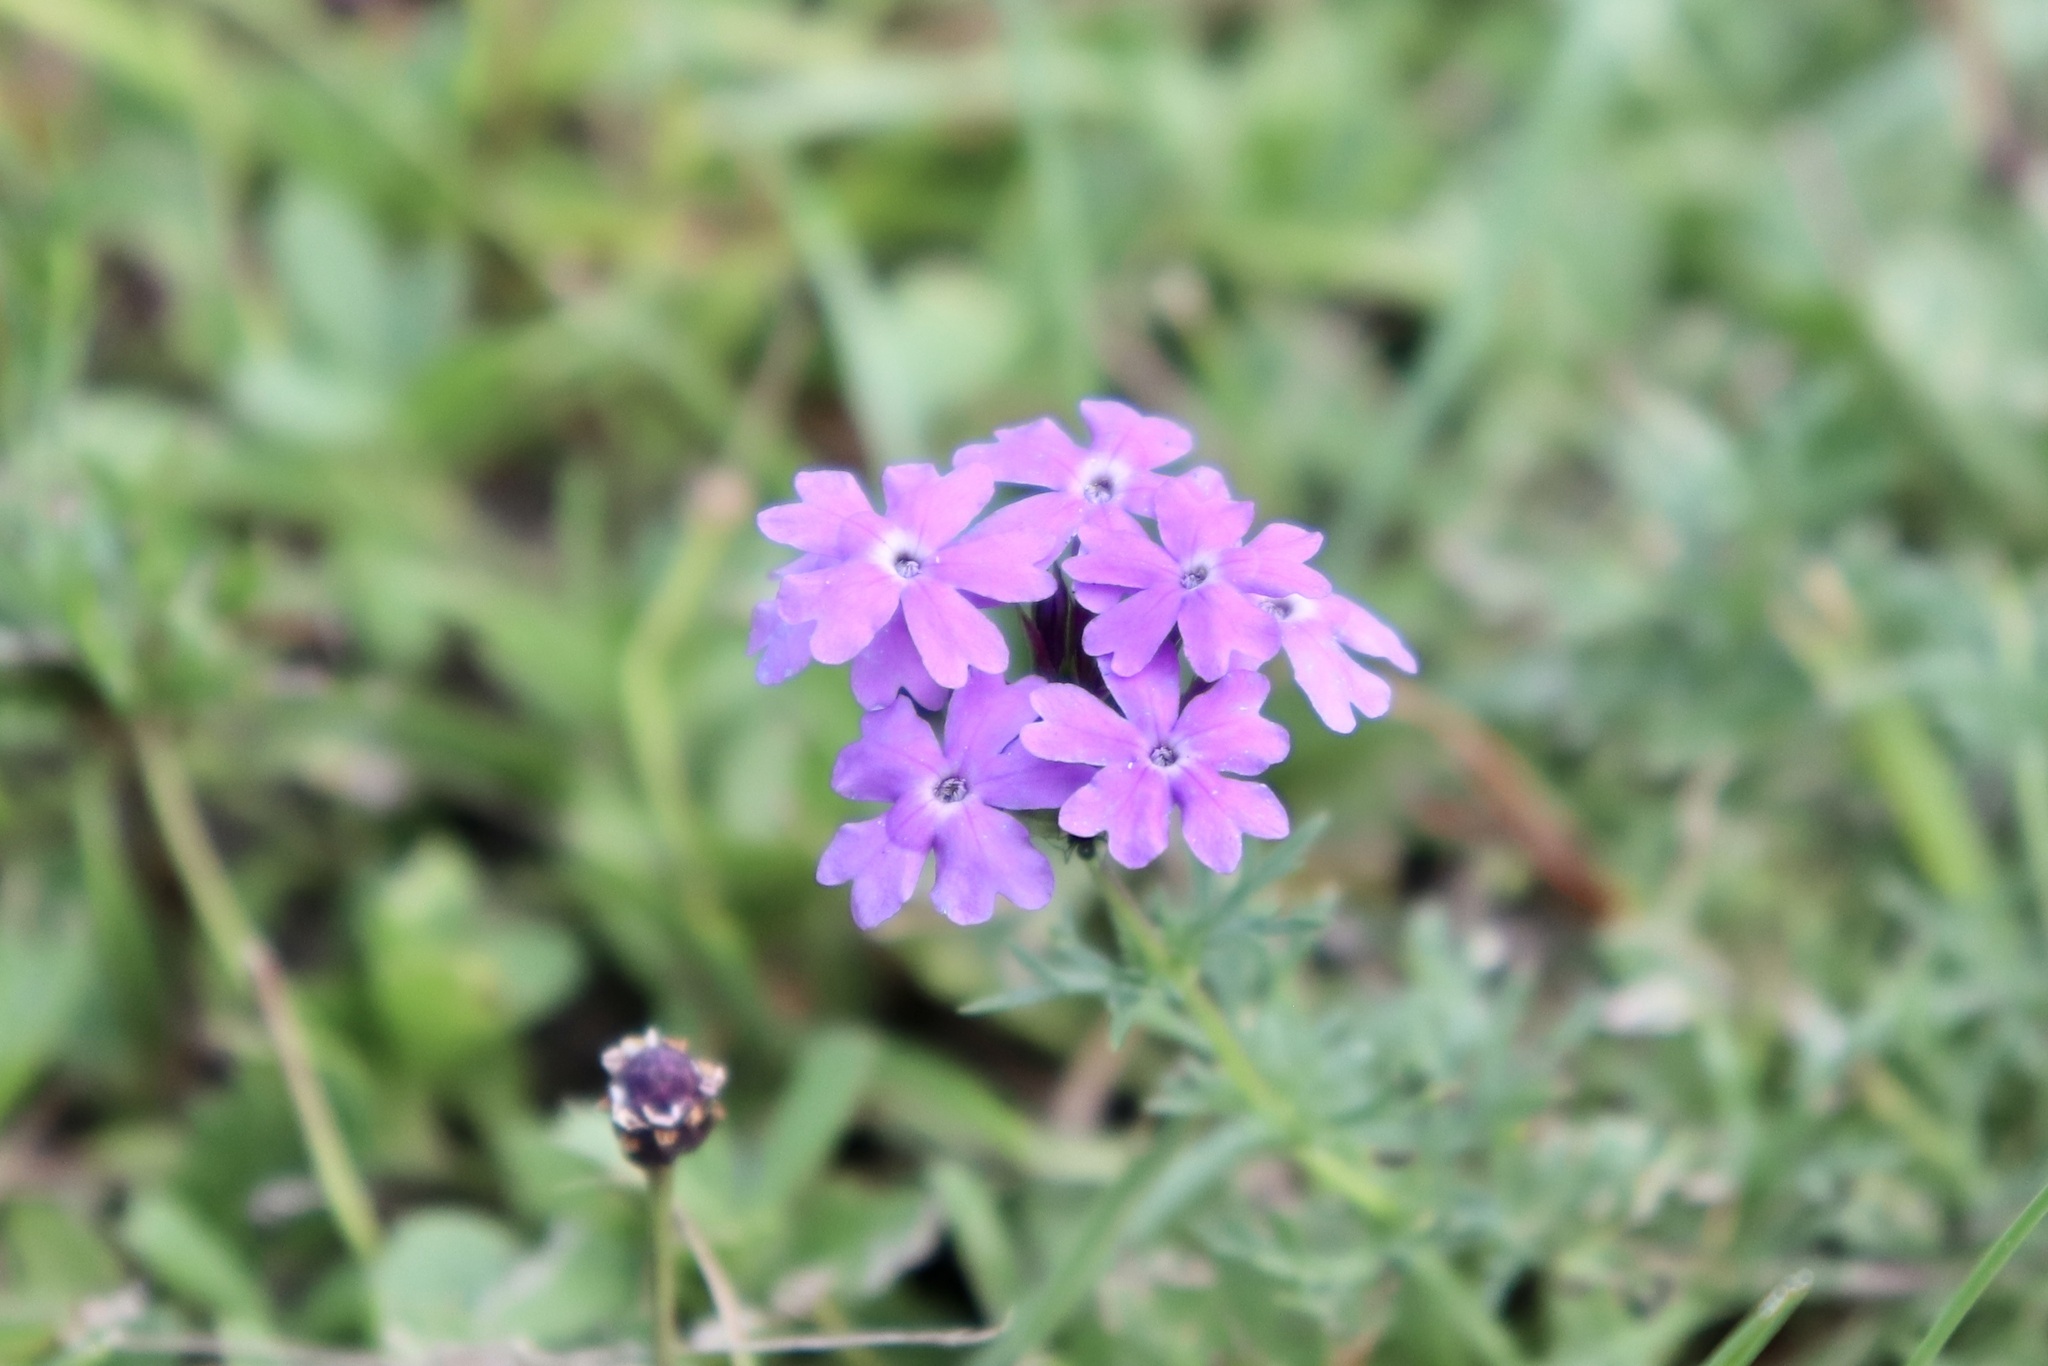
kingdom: Plantae
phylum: Tracheophyta
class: Magnoliopsida
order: Lamiales
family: Verbenaceae
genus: Verbena
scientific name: Verbena
